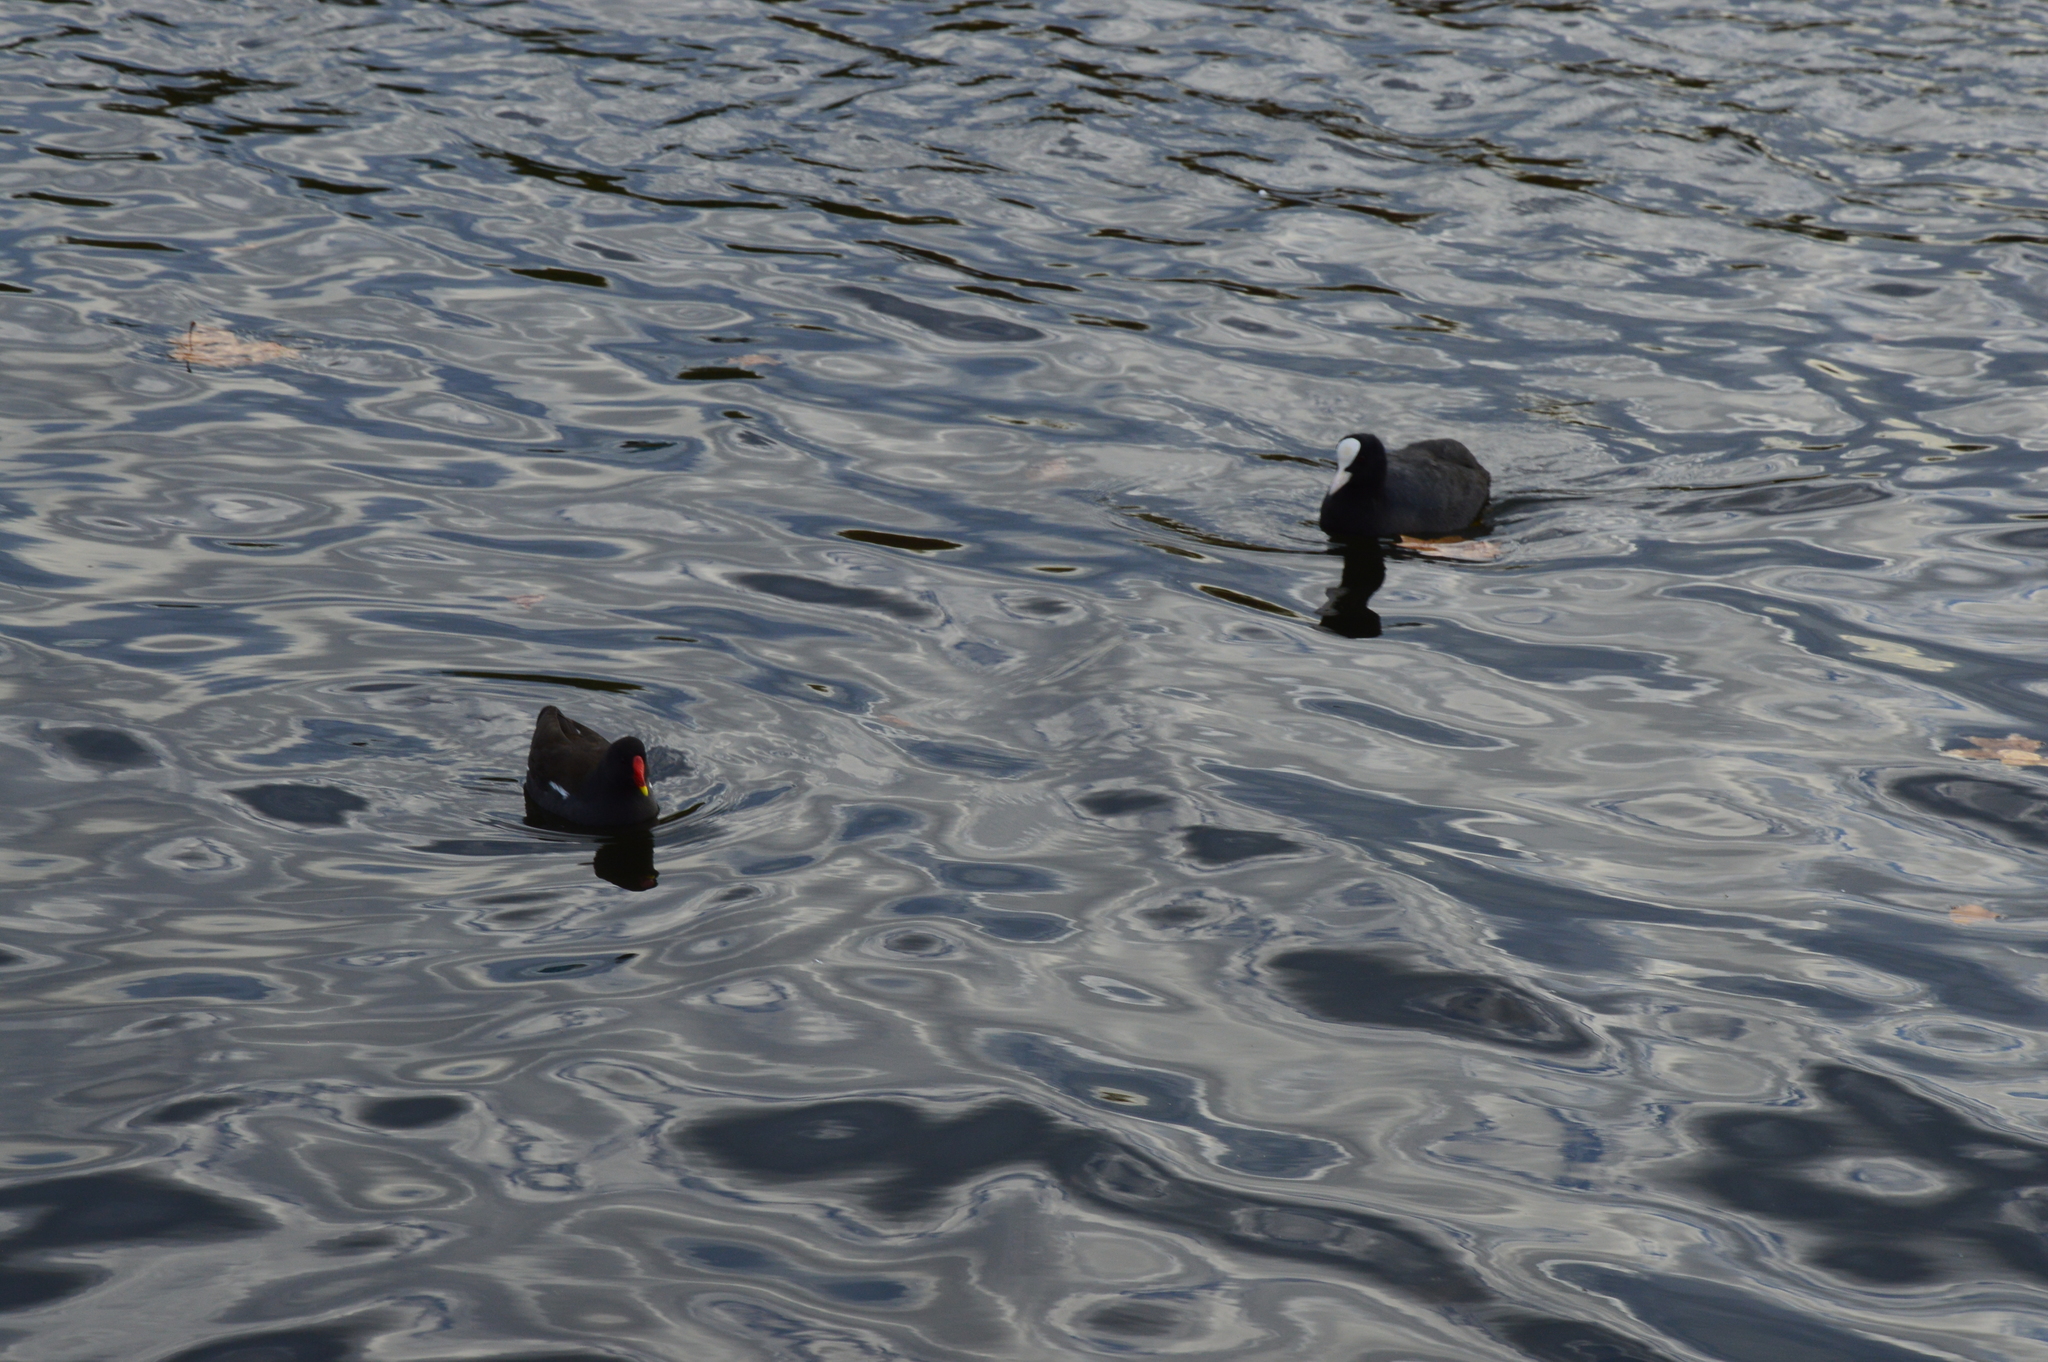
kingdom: Animalia
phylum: Chordata
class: Aves
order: Gruiformes
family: Rallidae
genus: Gallinula
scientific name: Gallinula chloropus
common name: Common moorhen
